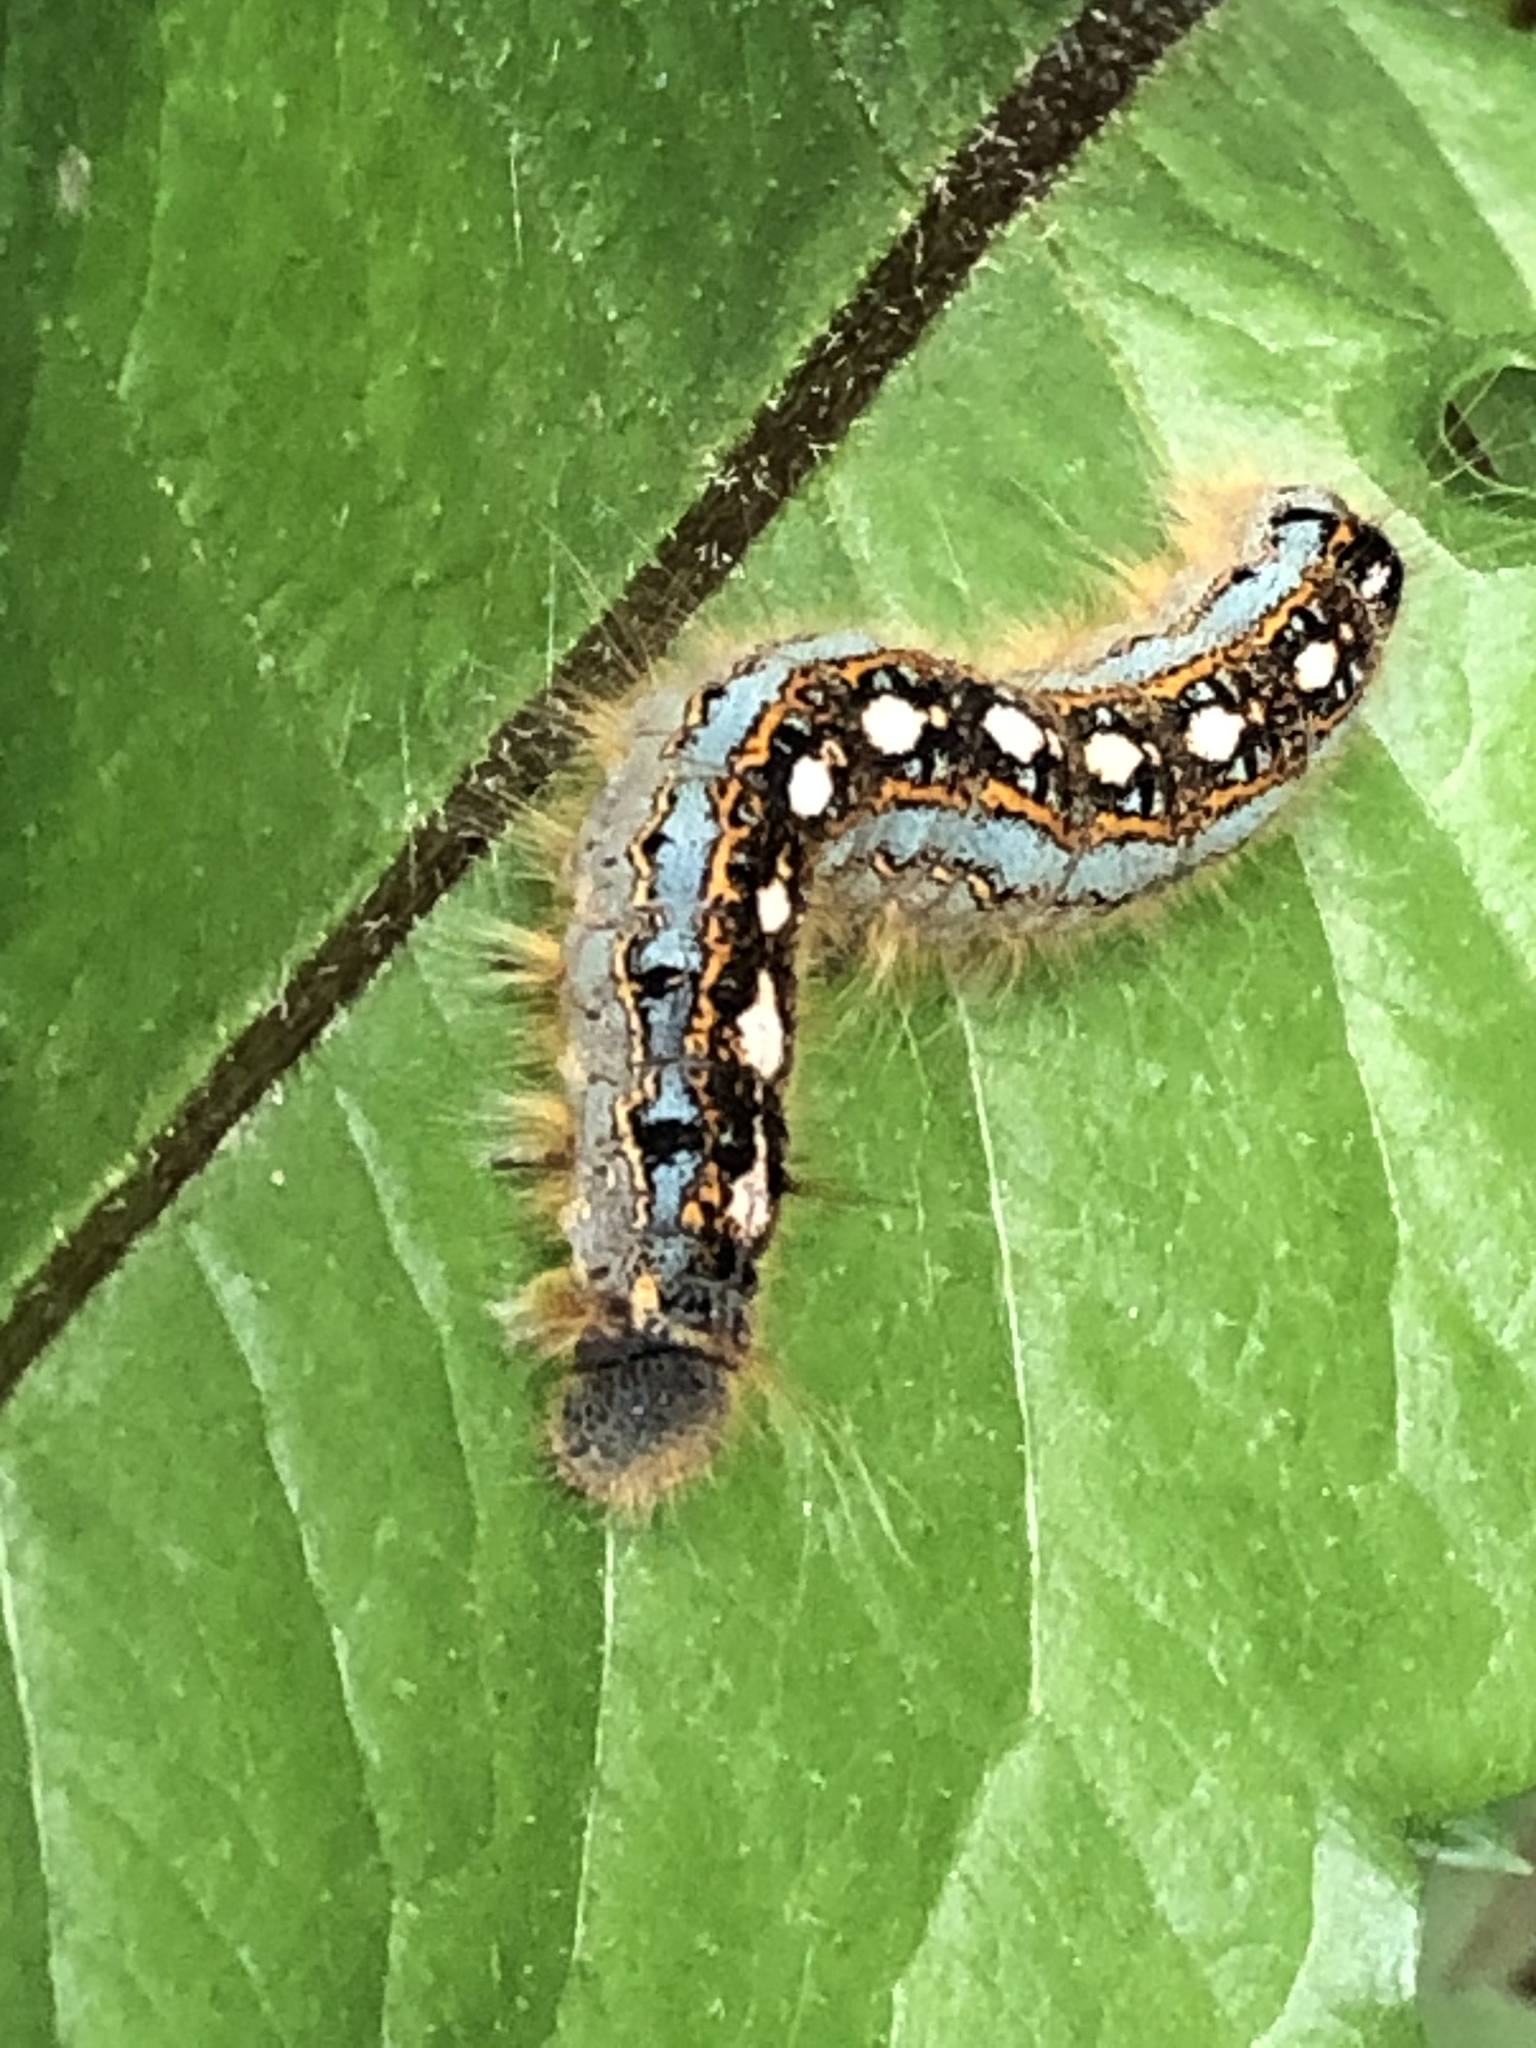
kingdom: Animalia
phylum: Arthropoda
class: Insecta
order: Lepidoptera
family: Lasiocampidae
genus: Malacosoma
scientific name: Malacosoma disstria
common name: Forest tent caterpillar
